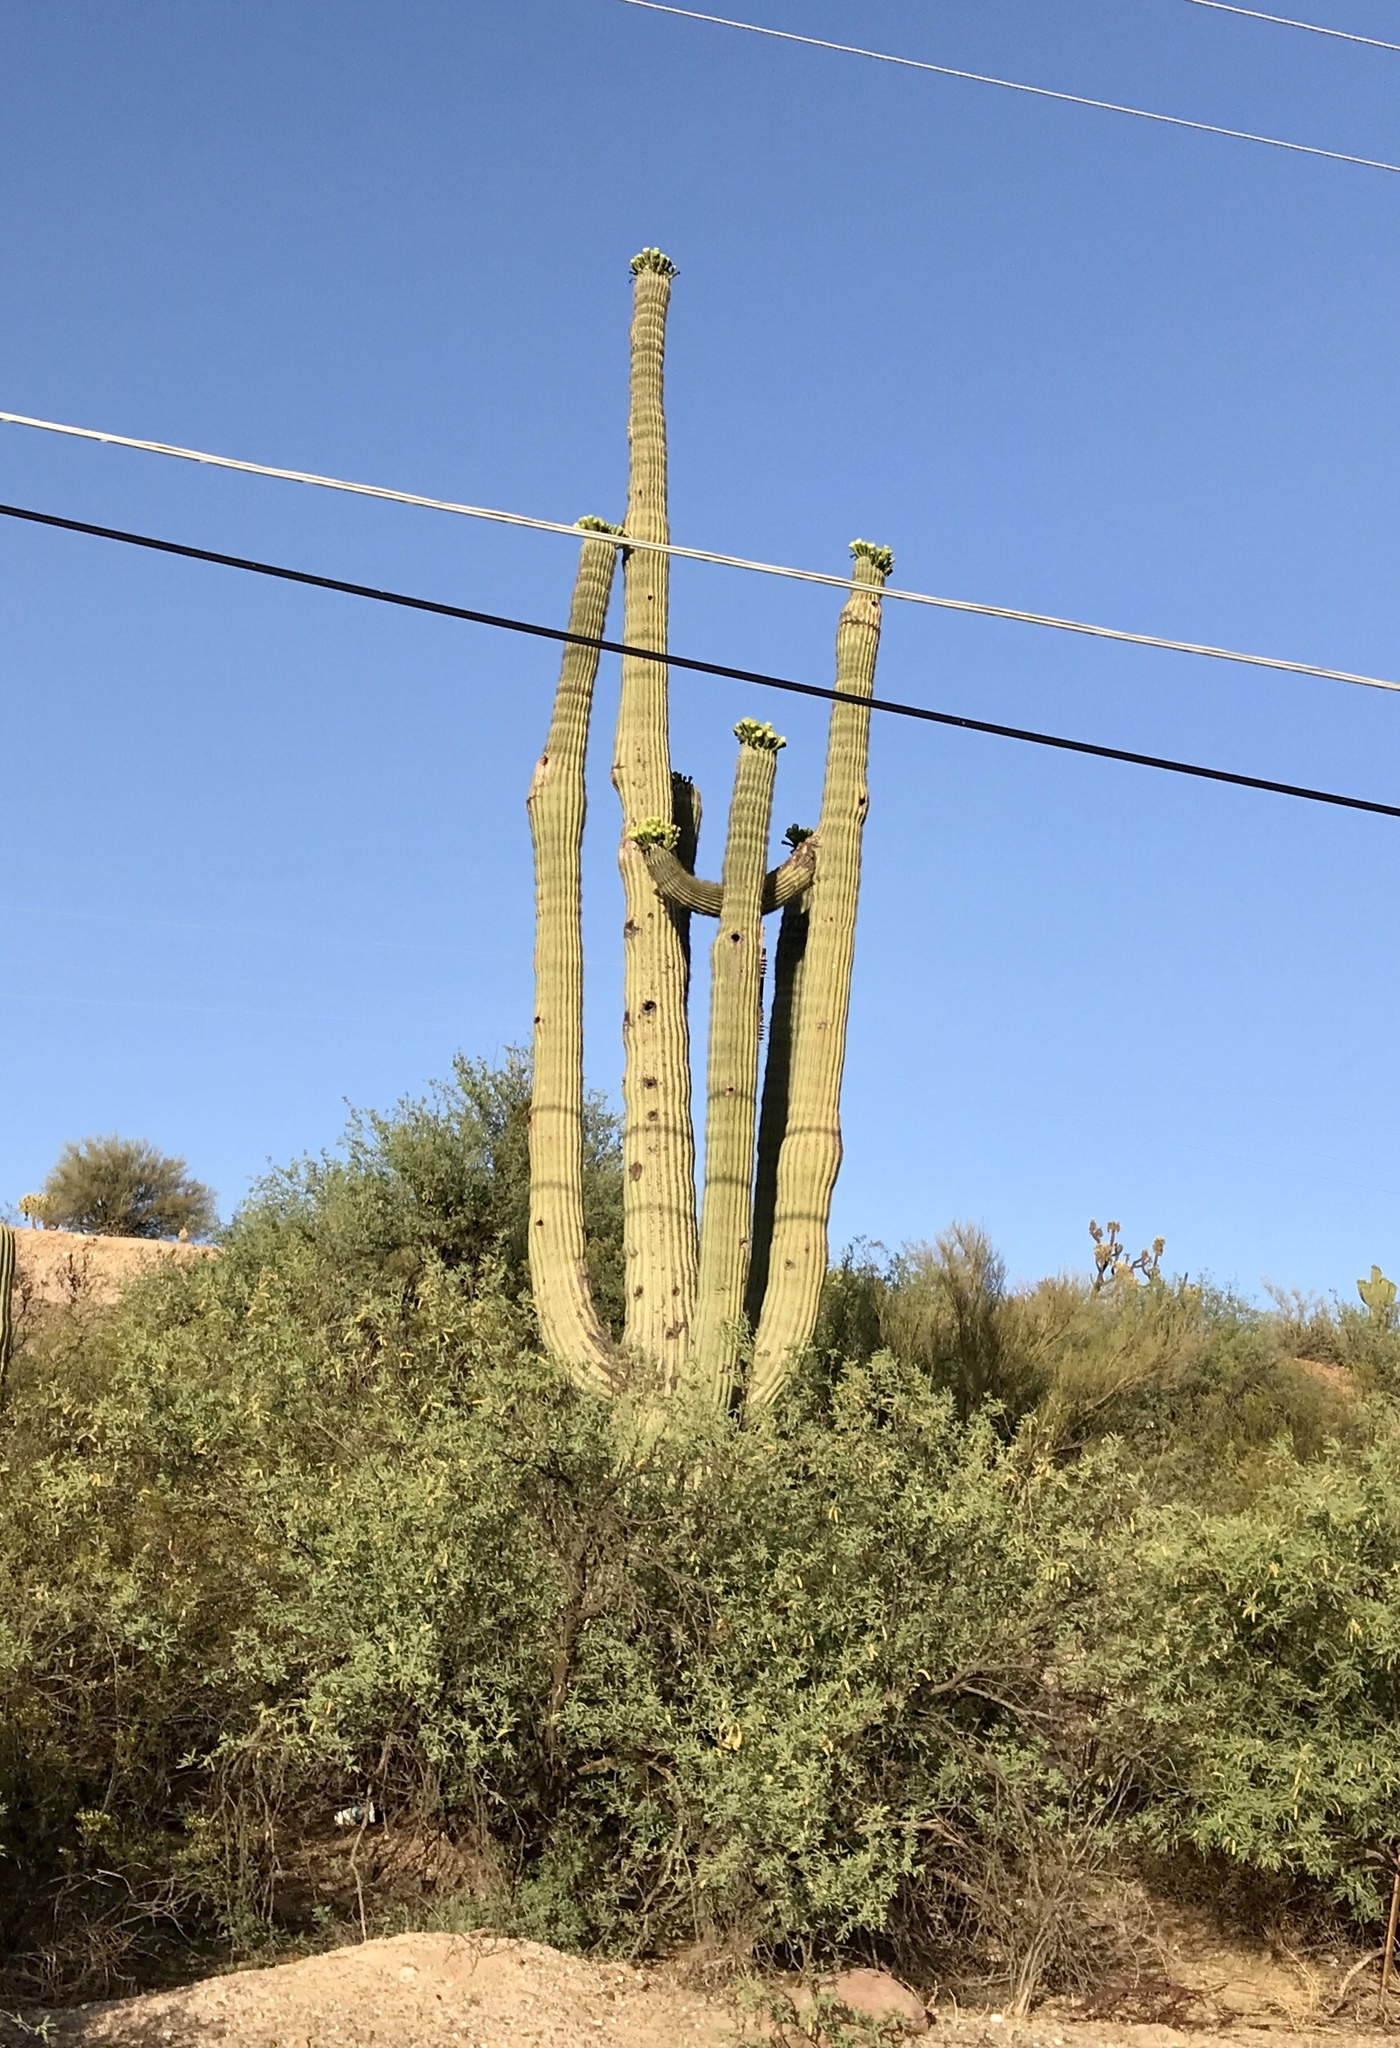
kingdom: Plantae
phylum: Tracheophyta
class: Magnoliopsida
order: Caryophyllales
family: Cactaceae
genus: Carnegiea
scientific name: Carnegiea gigantea
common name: Saguaro
